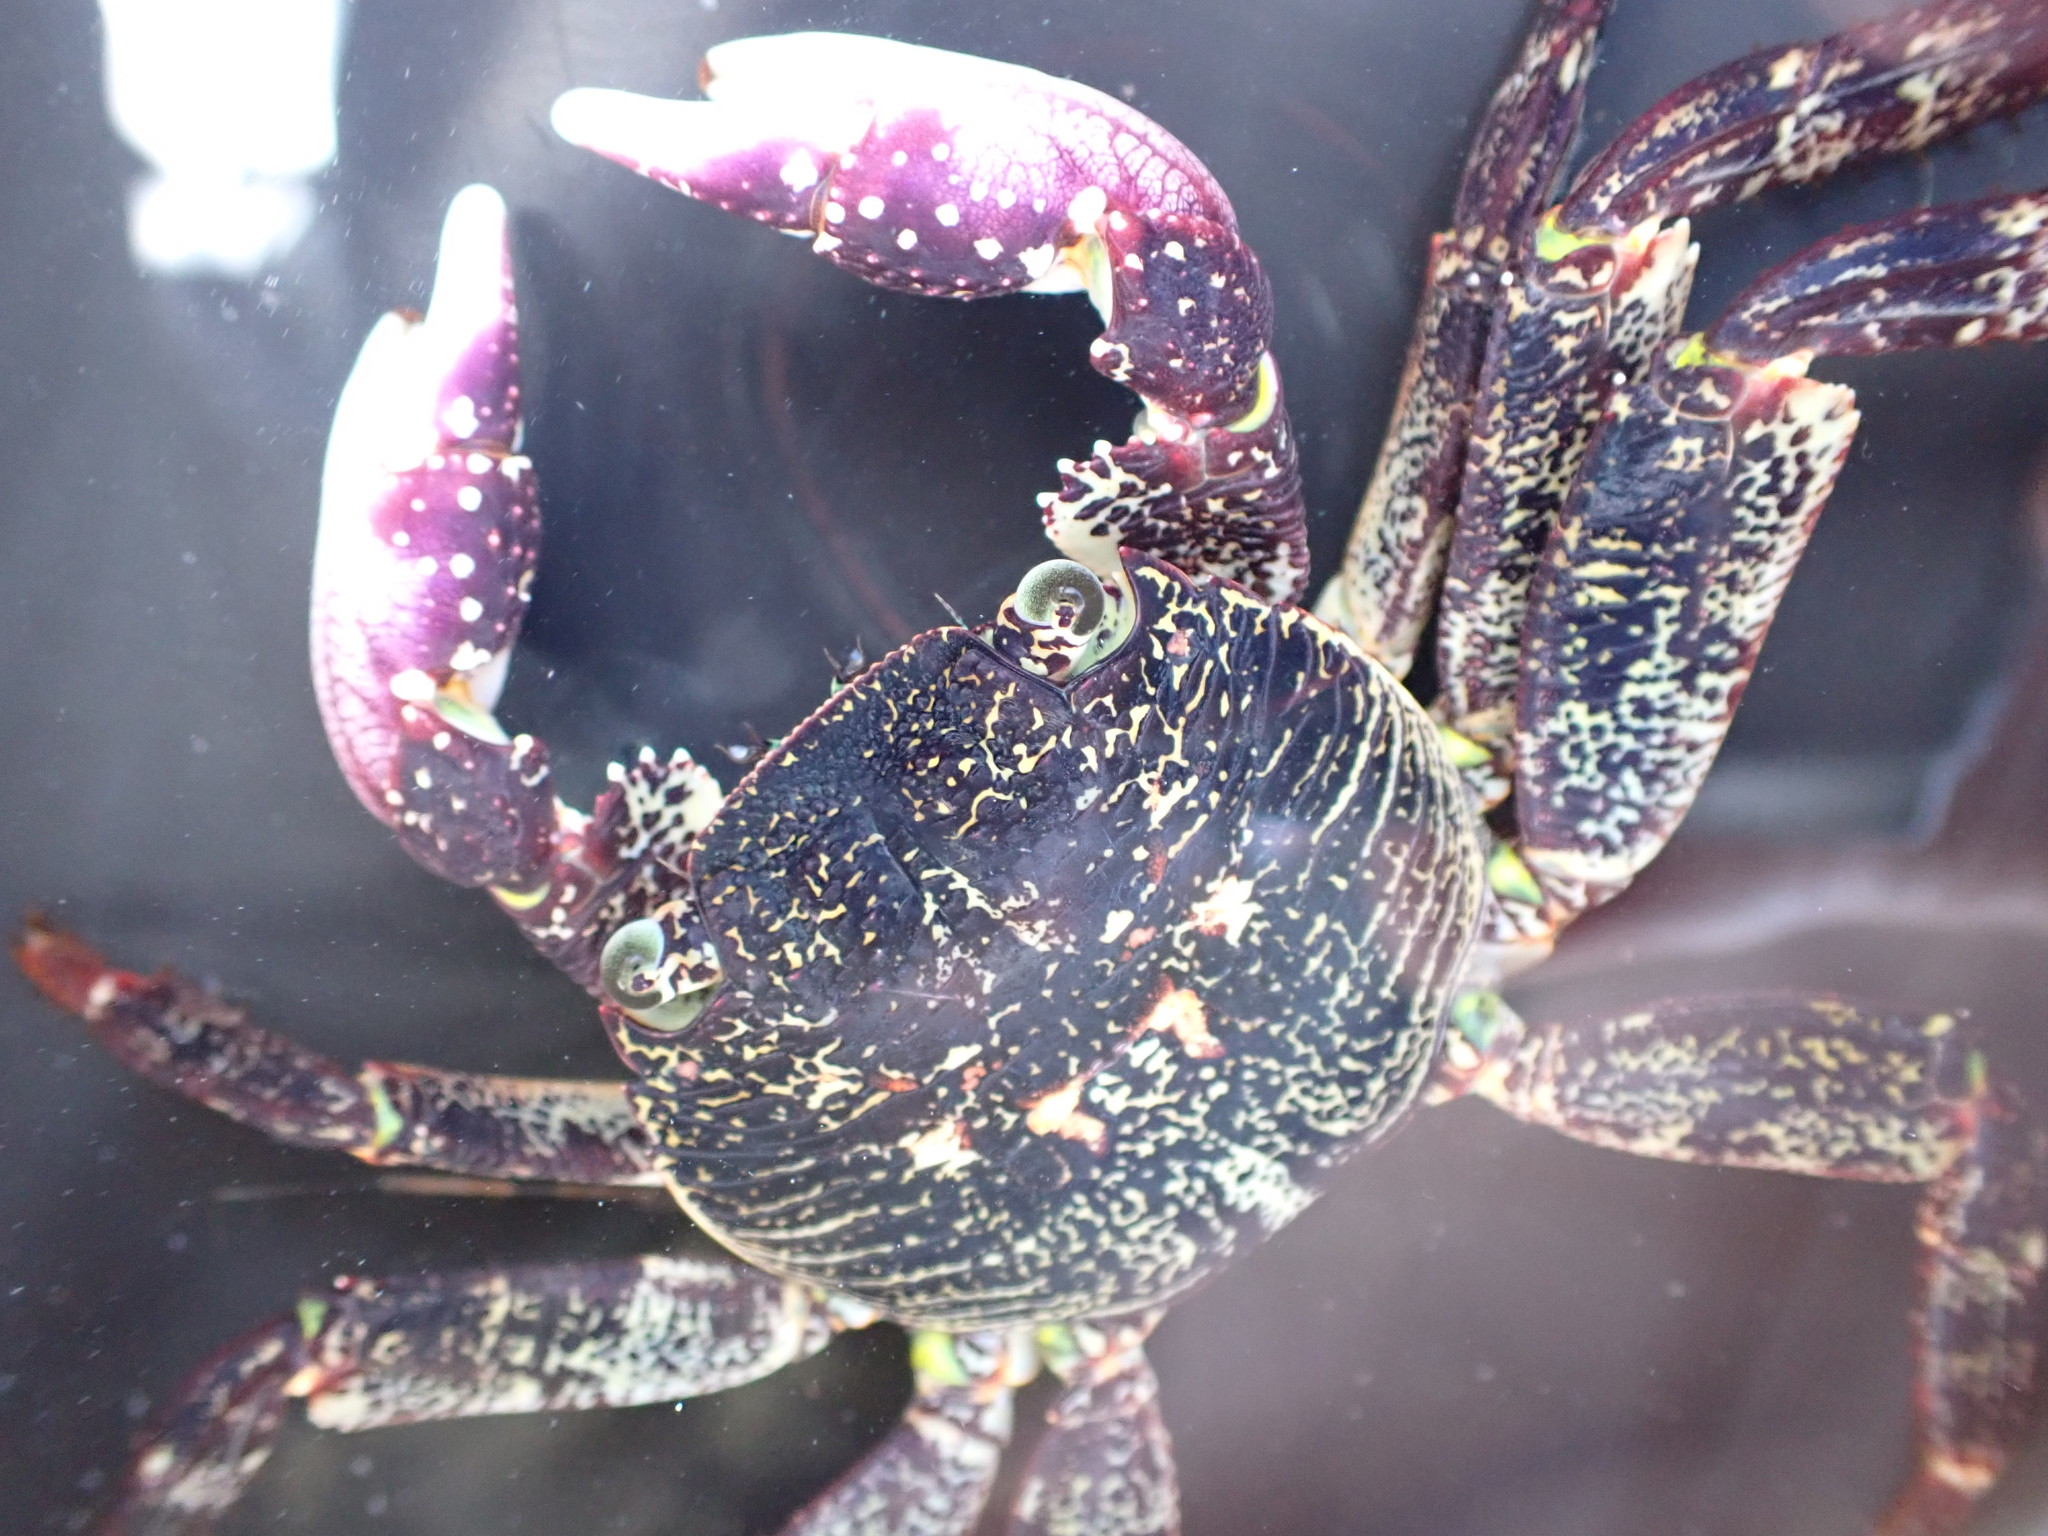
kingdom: Animalia
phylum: Arthropoda
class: Malacostraca
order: Decapoda
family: Grapsidae
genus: Leptograpsus
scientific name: Leptograpsus variegatus
